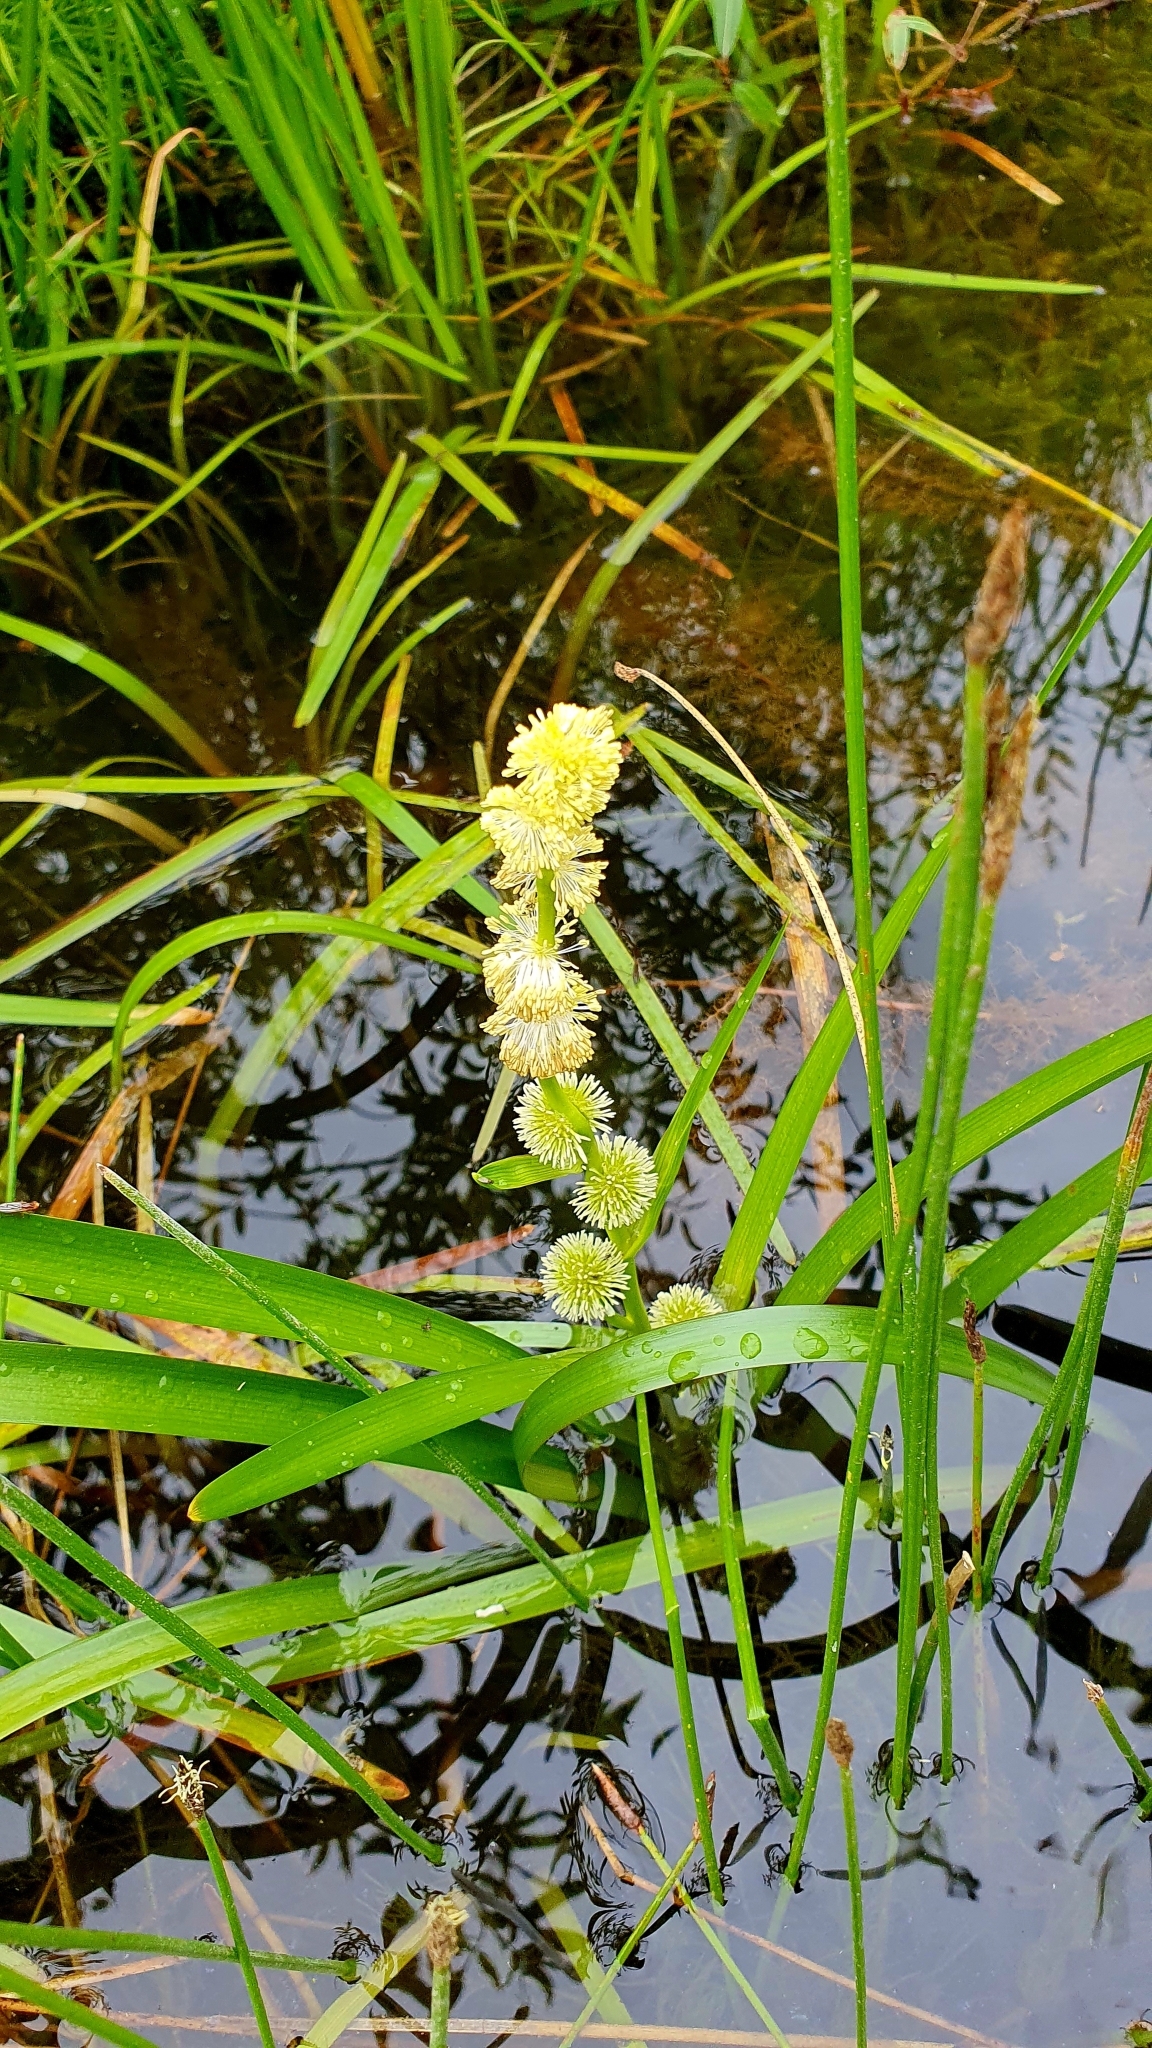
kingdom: Plantae
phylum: Tracheophyta
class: Liliopsida
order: Poales
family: Typhaceae
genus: Sparganium
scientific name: Sparganium emersum
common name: Unbranched bur-reed
